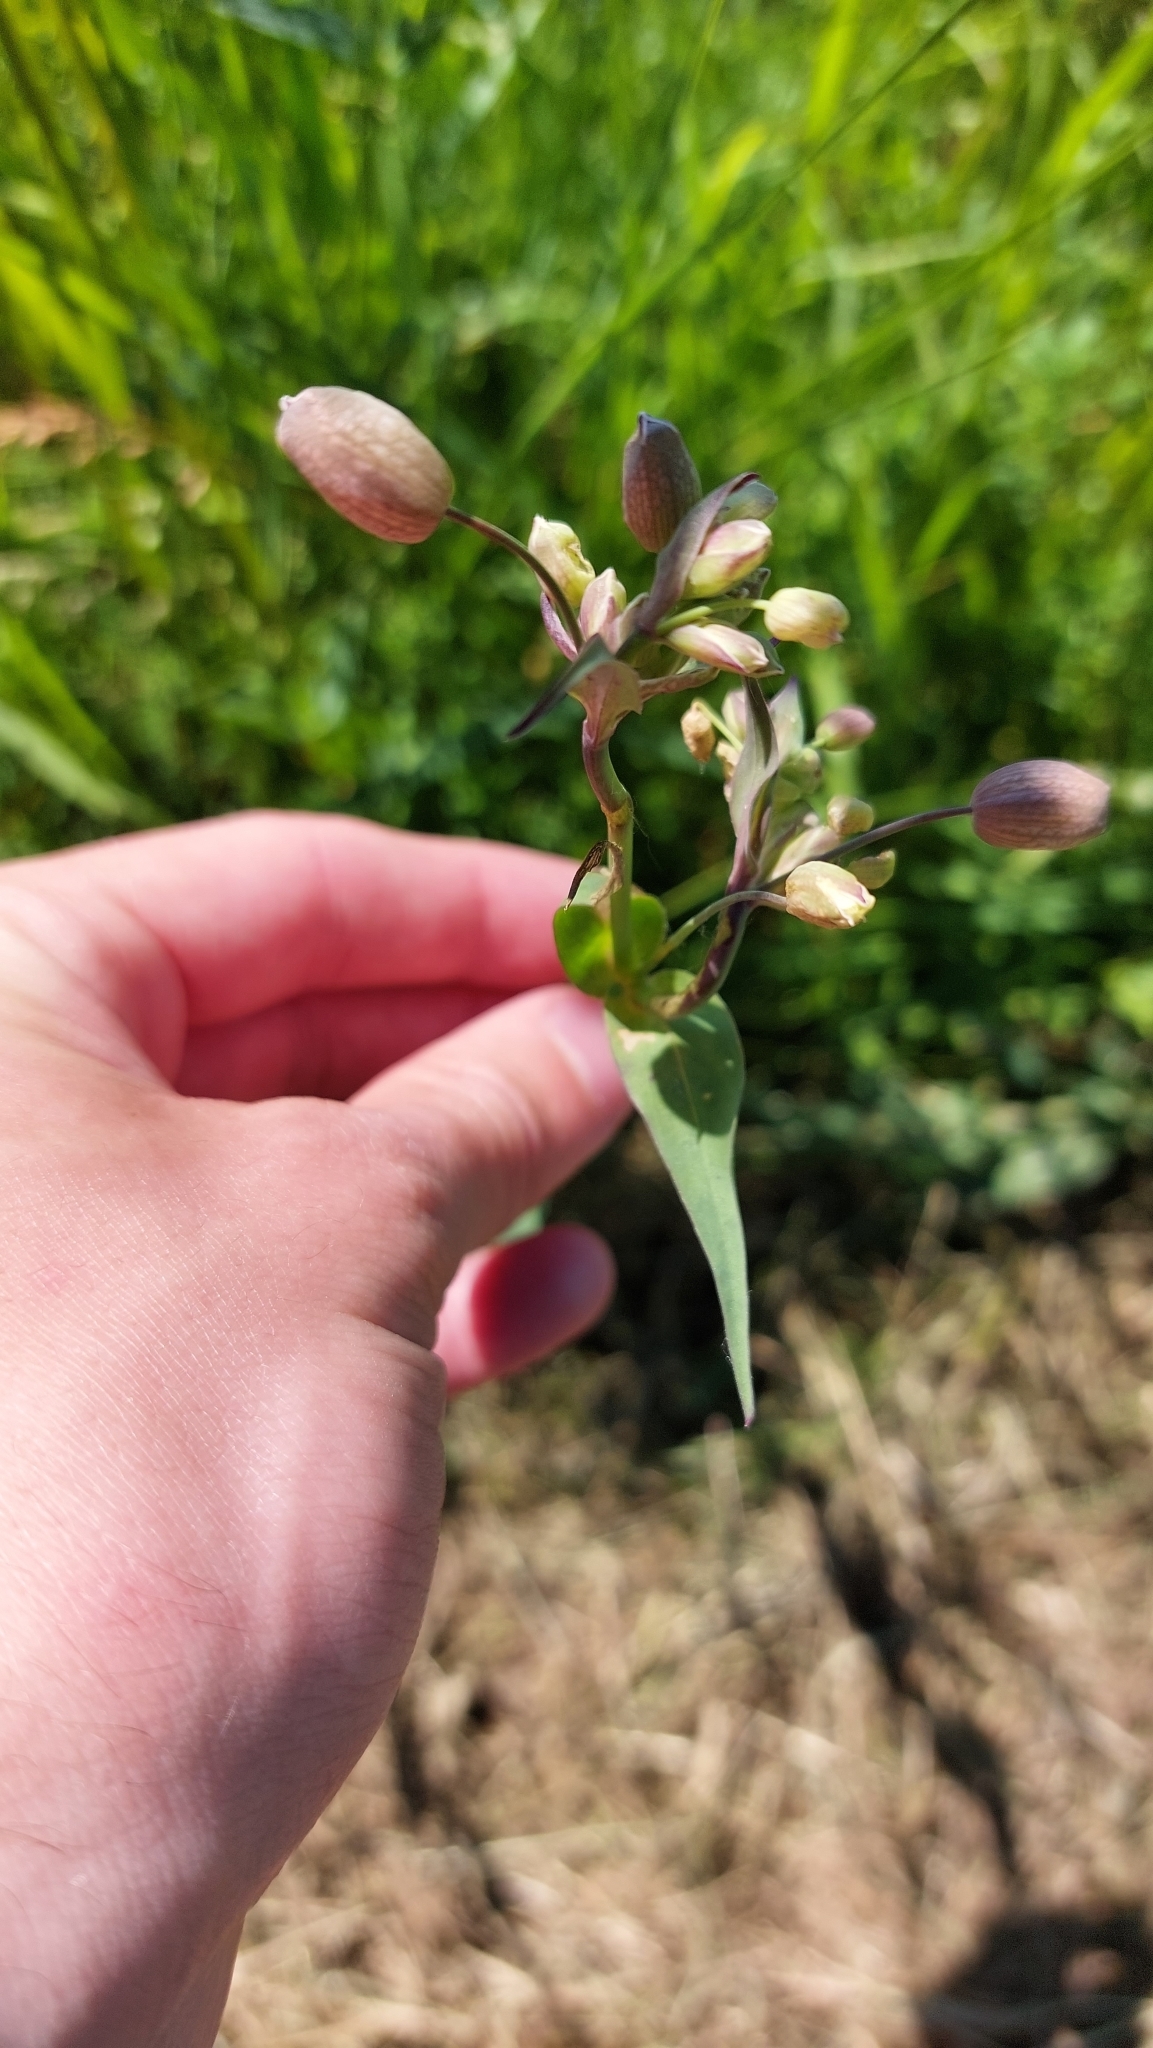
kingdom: Plantae
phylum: Tracheophyta
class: Magnoliopsida
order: Caryophyllales
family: Caryophyllaceae
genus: Silene
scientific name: Silene vulgaris
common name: Bladder campion
